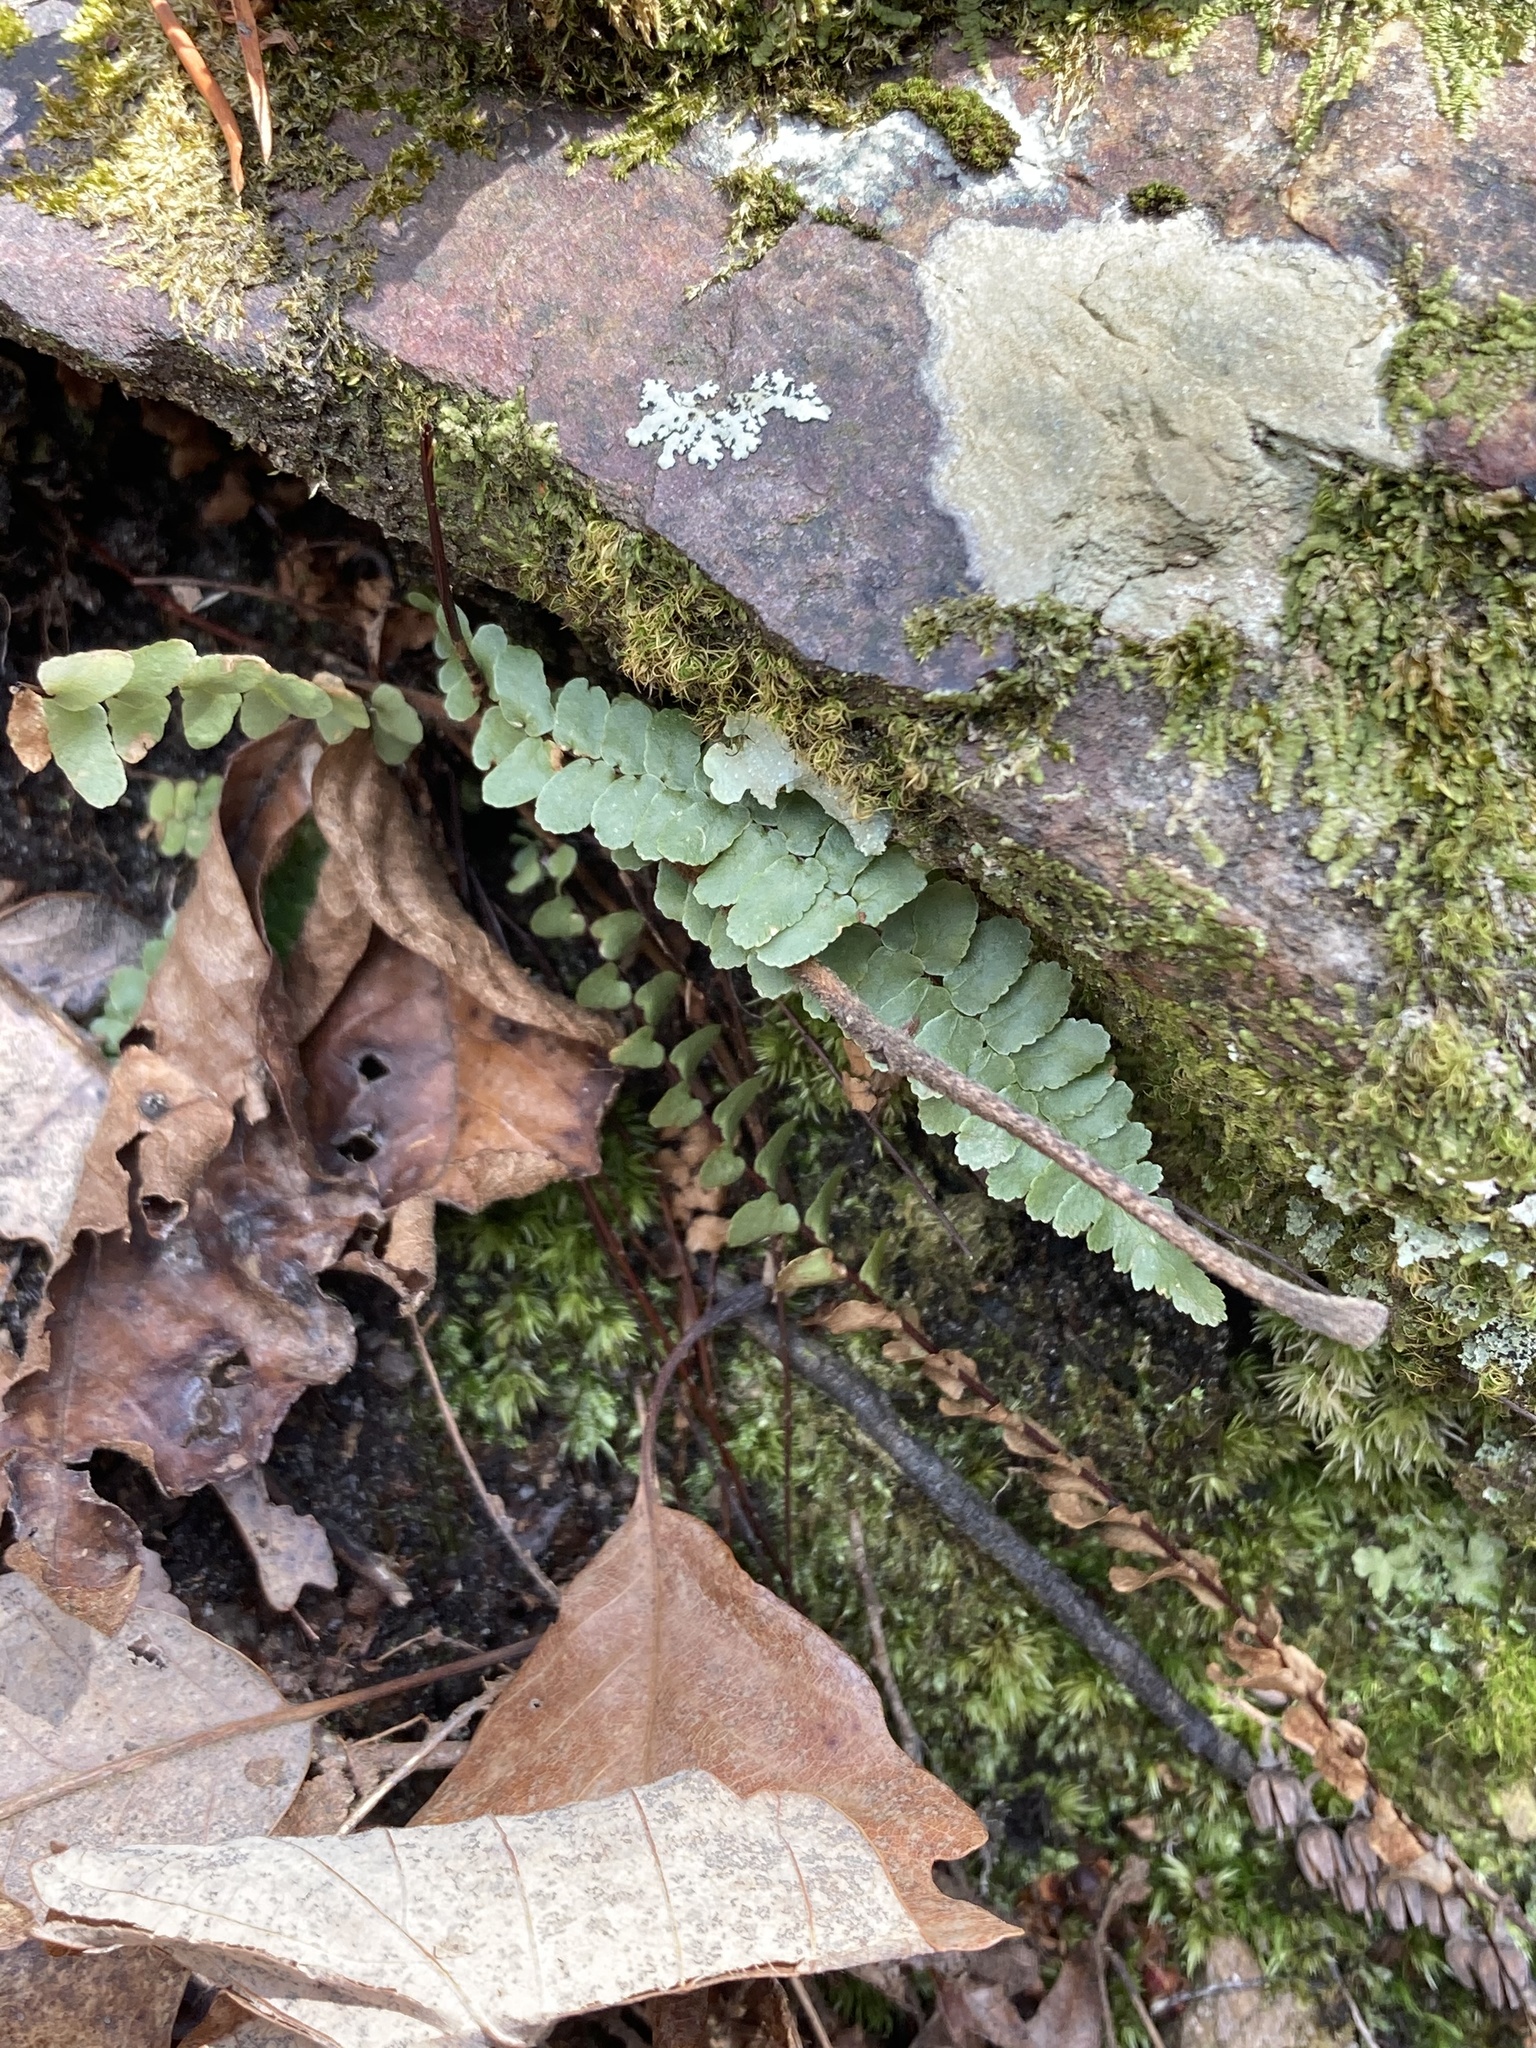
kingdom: Plantae
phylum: Tracheophyta
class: Polypodiopsida
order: Polypodiales
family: Aspleniaceae
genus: Asplenium
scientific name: Asplenium platyneuron
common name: Ebony spleenwort
